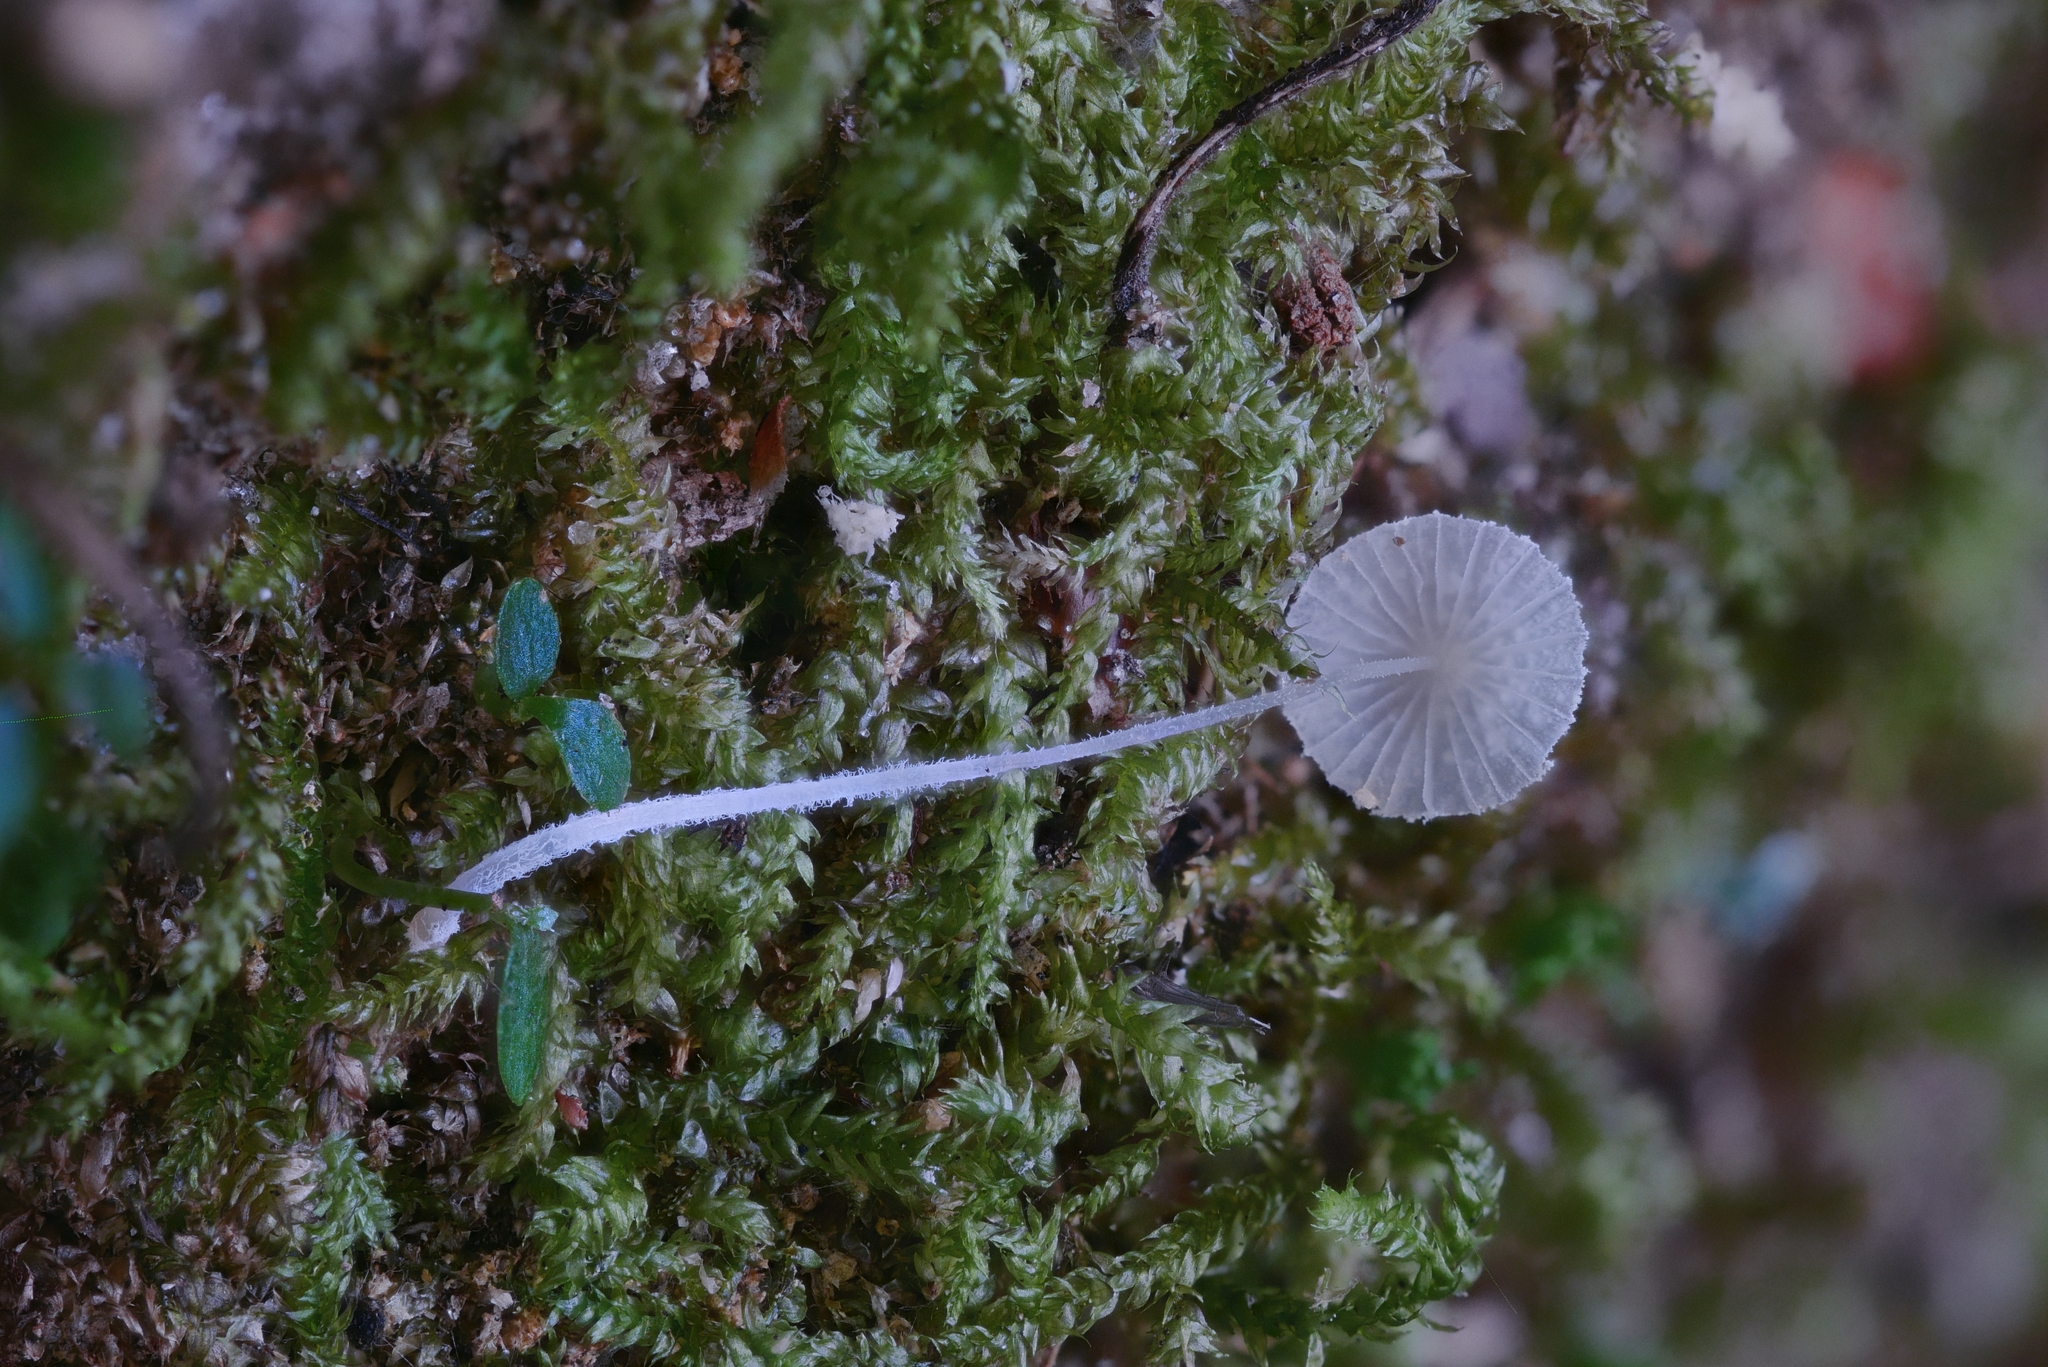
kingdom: Fungi
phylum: Basidiomycota
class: Agaricomycetes
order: Agaricales
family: Mycenaceae
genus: Mycena
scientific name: Mycena chloroxantha
